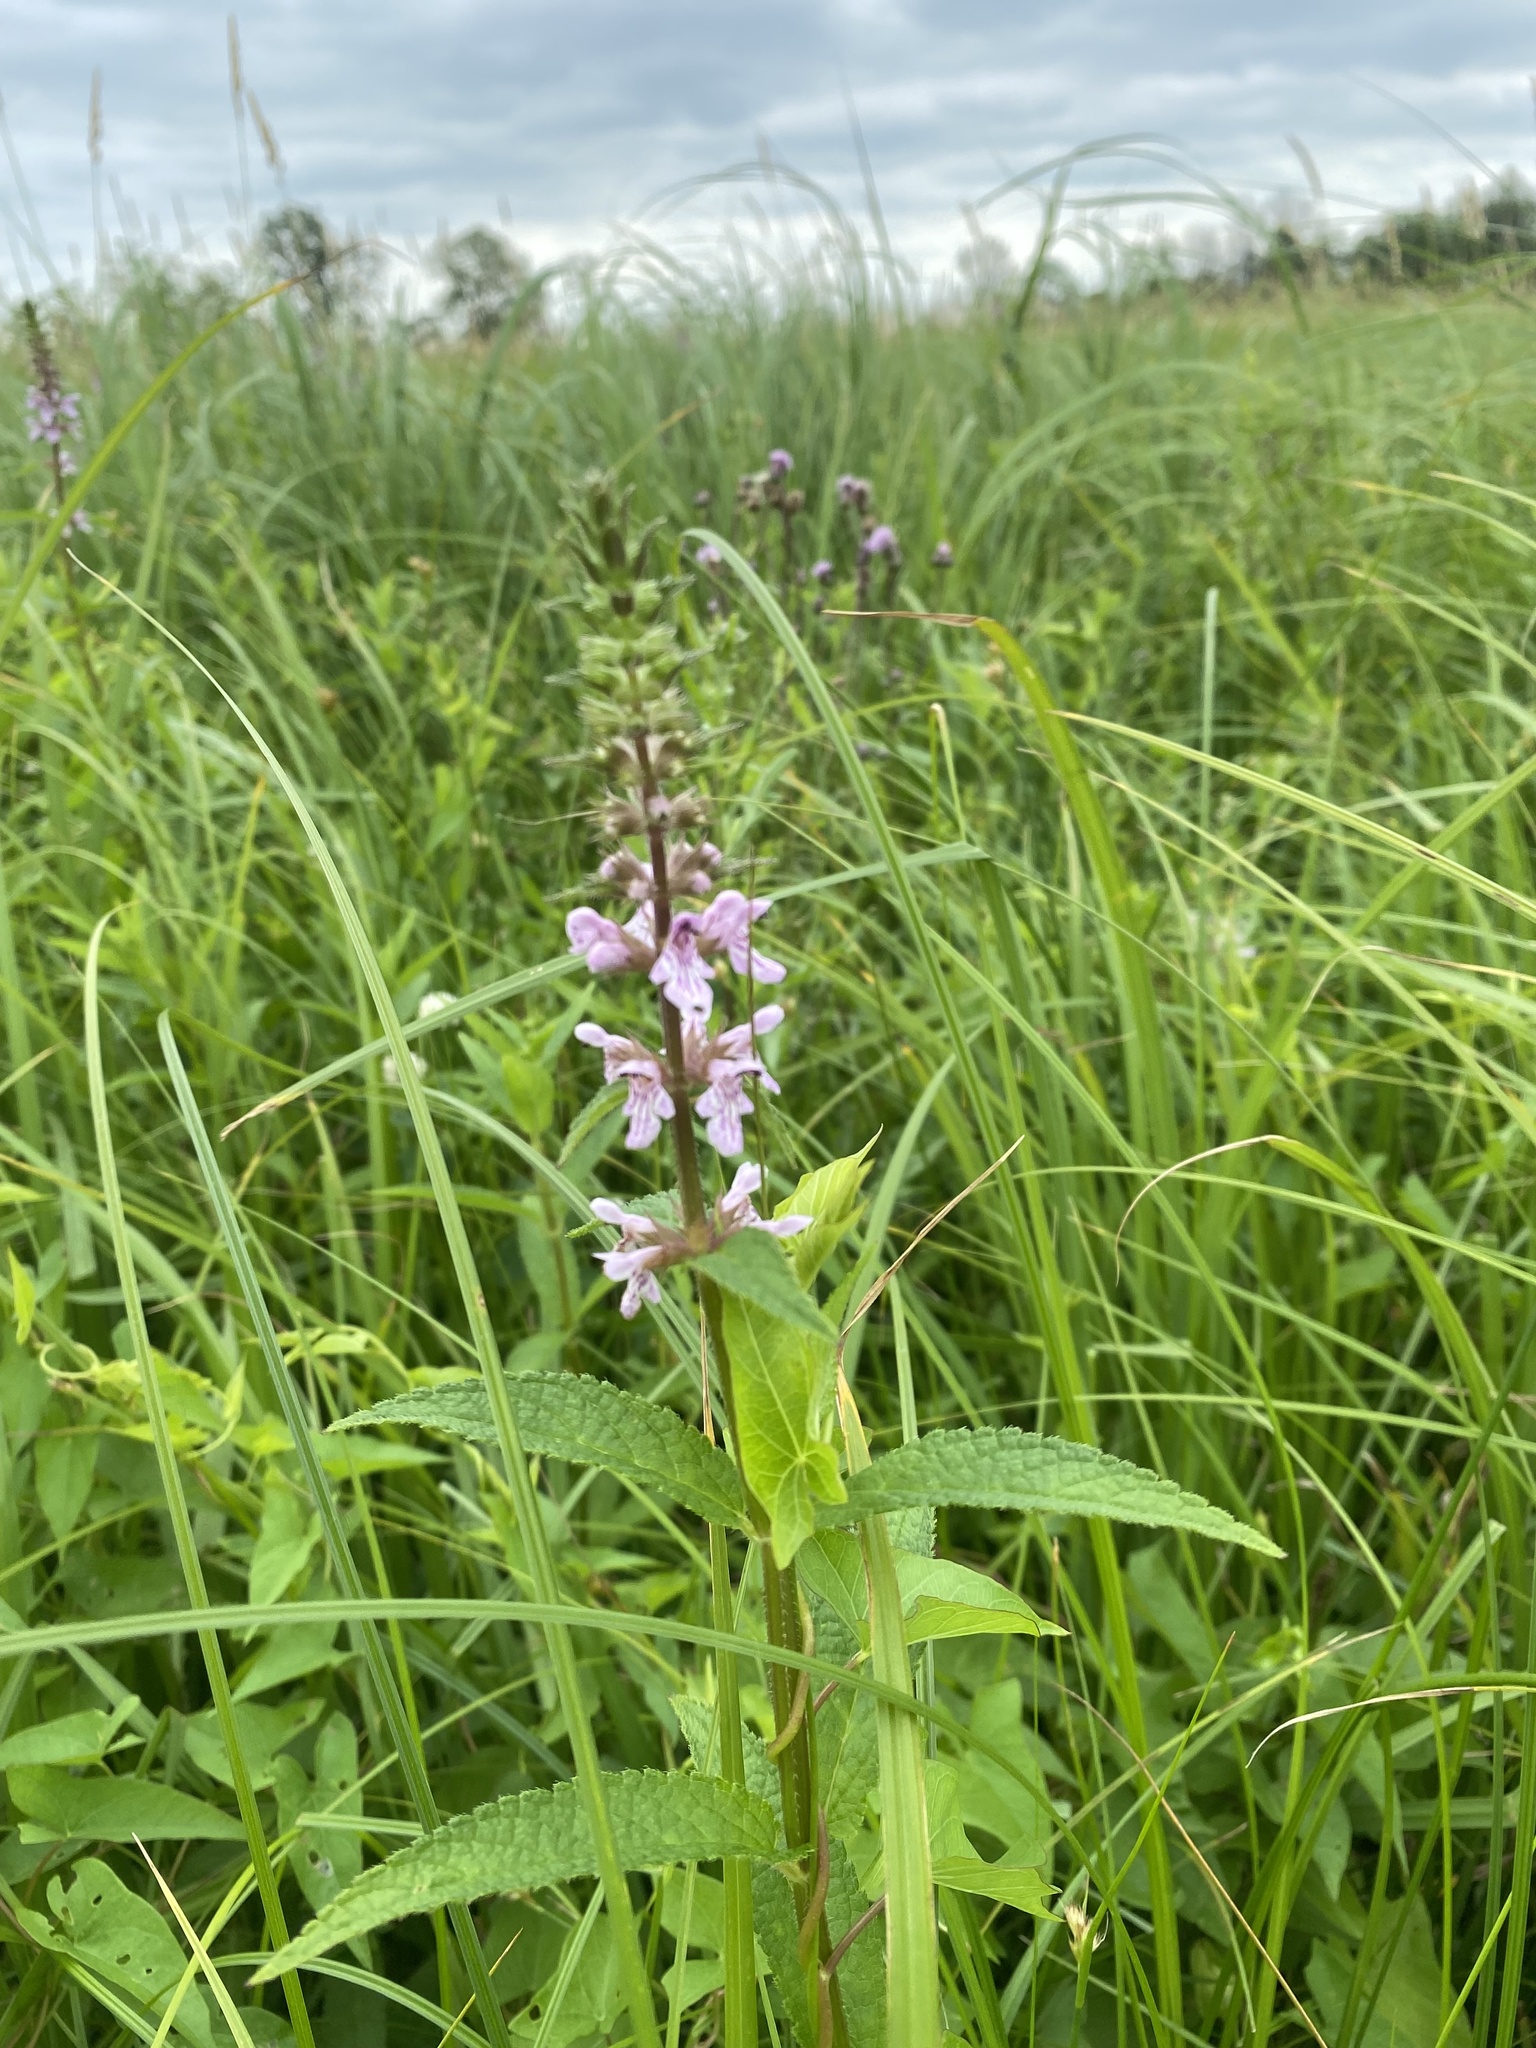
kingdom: Plantae
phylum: Tracheophyta
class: Magnoliopsida
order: Lamiales
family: Lamiaceae
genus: Stachys
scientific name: Stachys palustris
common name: Marsh woundwort
